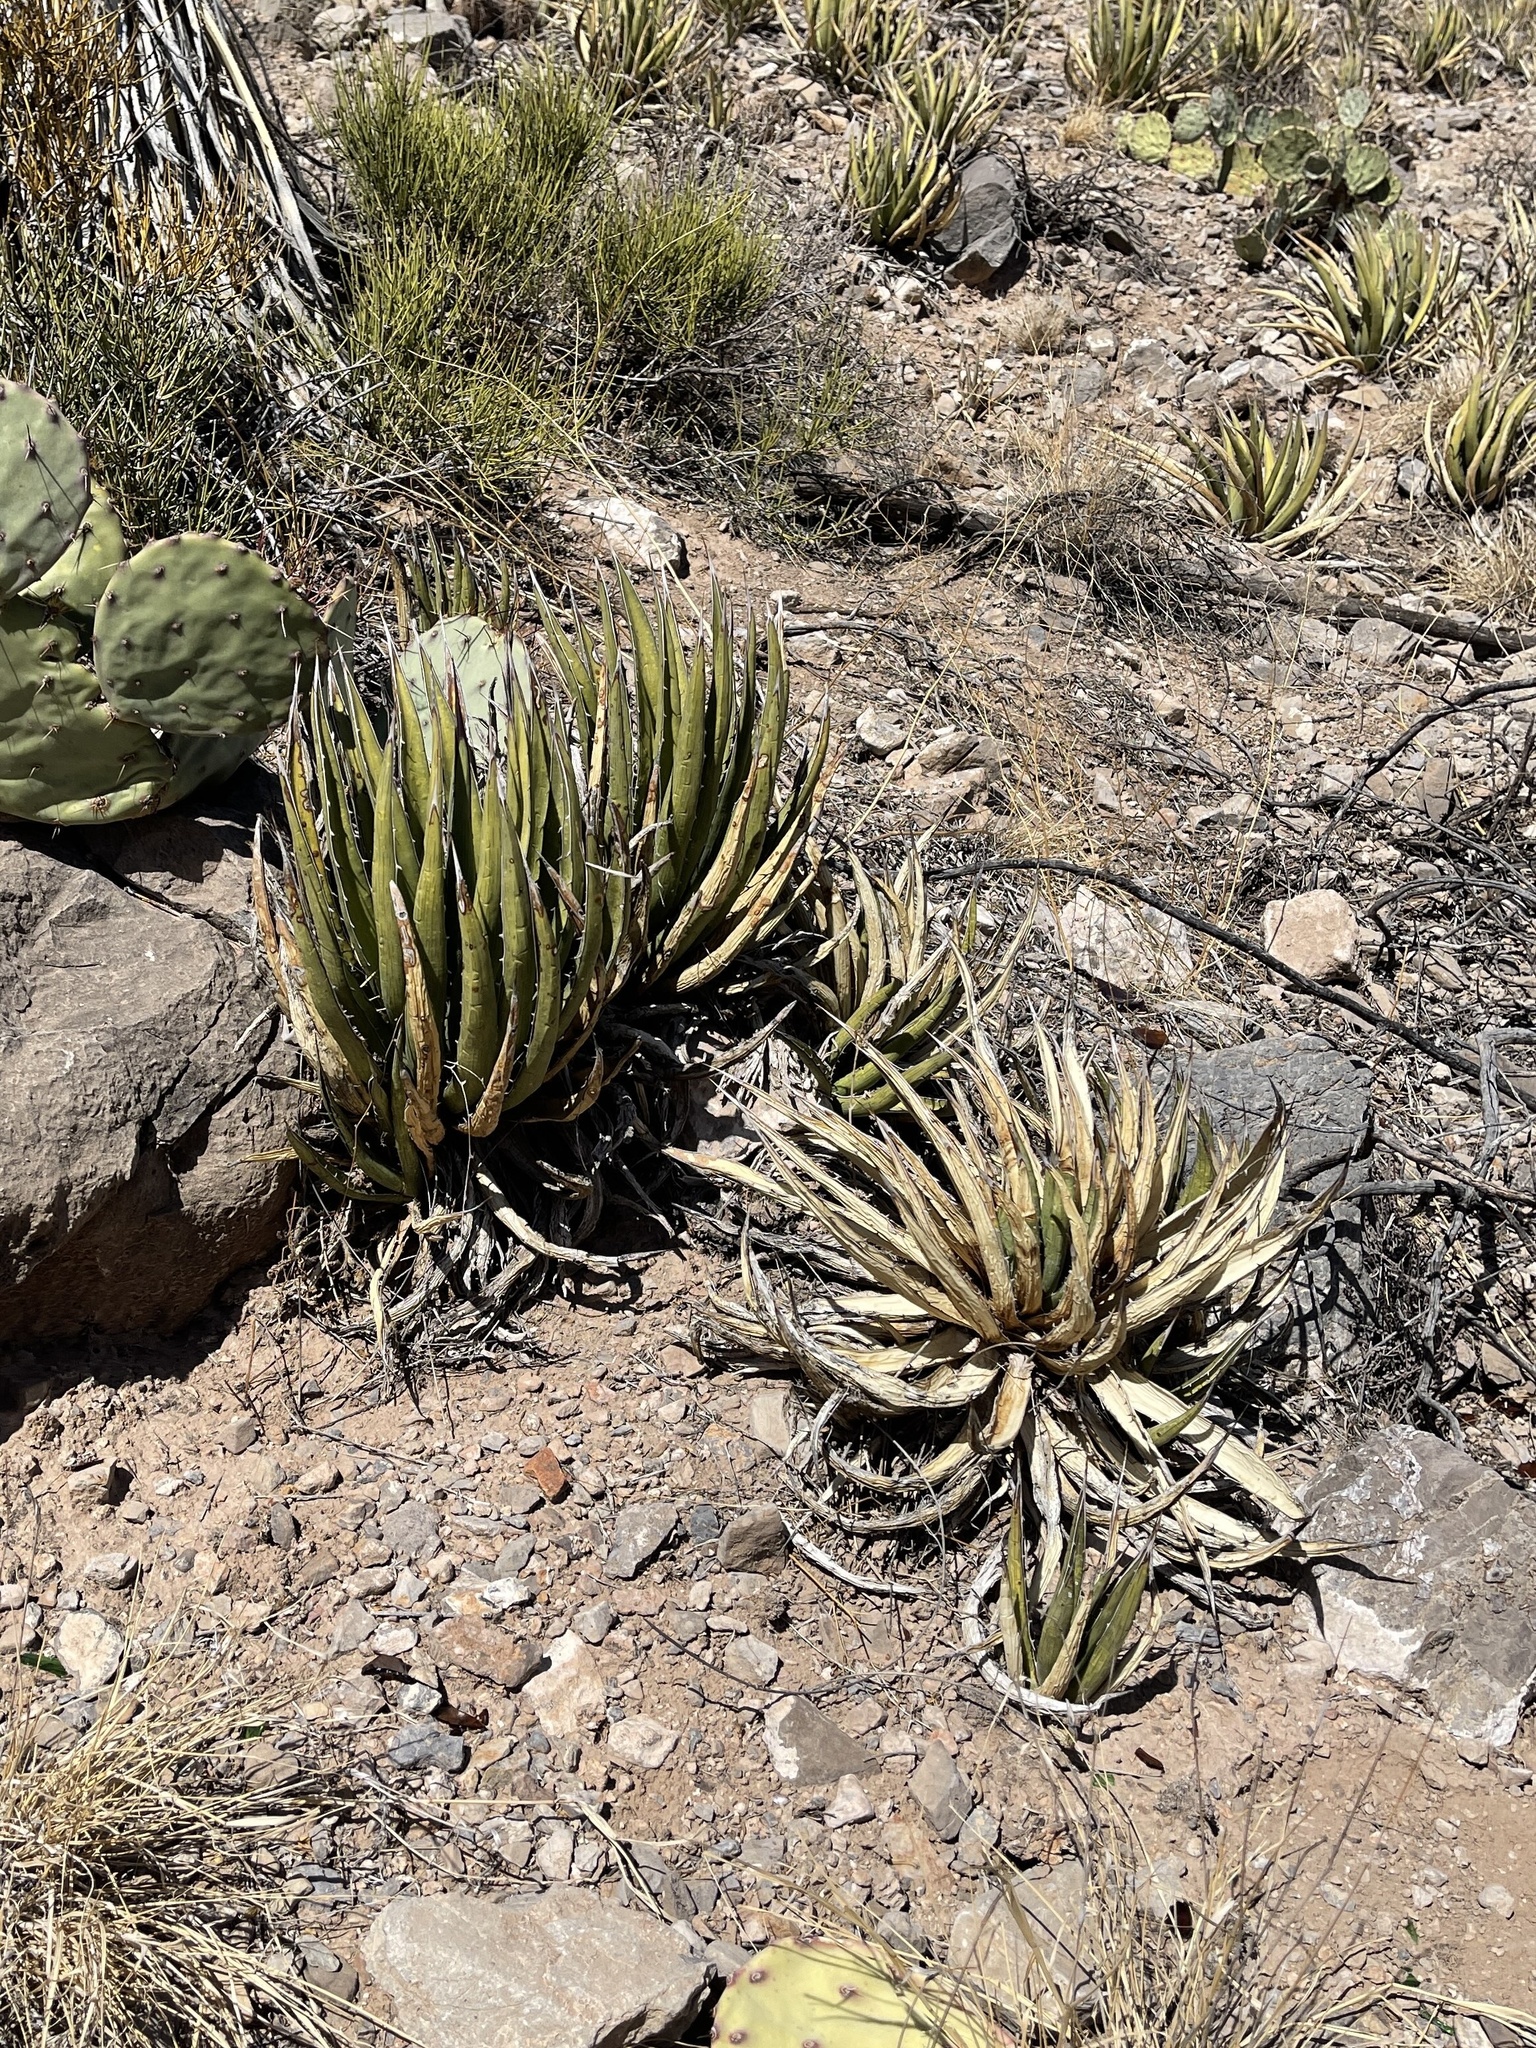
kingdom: Plantae
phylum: Tracheophyta
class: Liliopsida
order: Asparagales
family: Asparagaceae
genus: Agave
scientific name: Agave lechuguilla
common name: Lecheguilla agave
